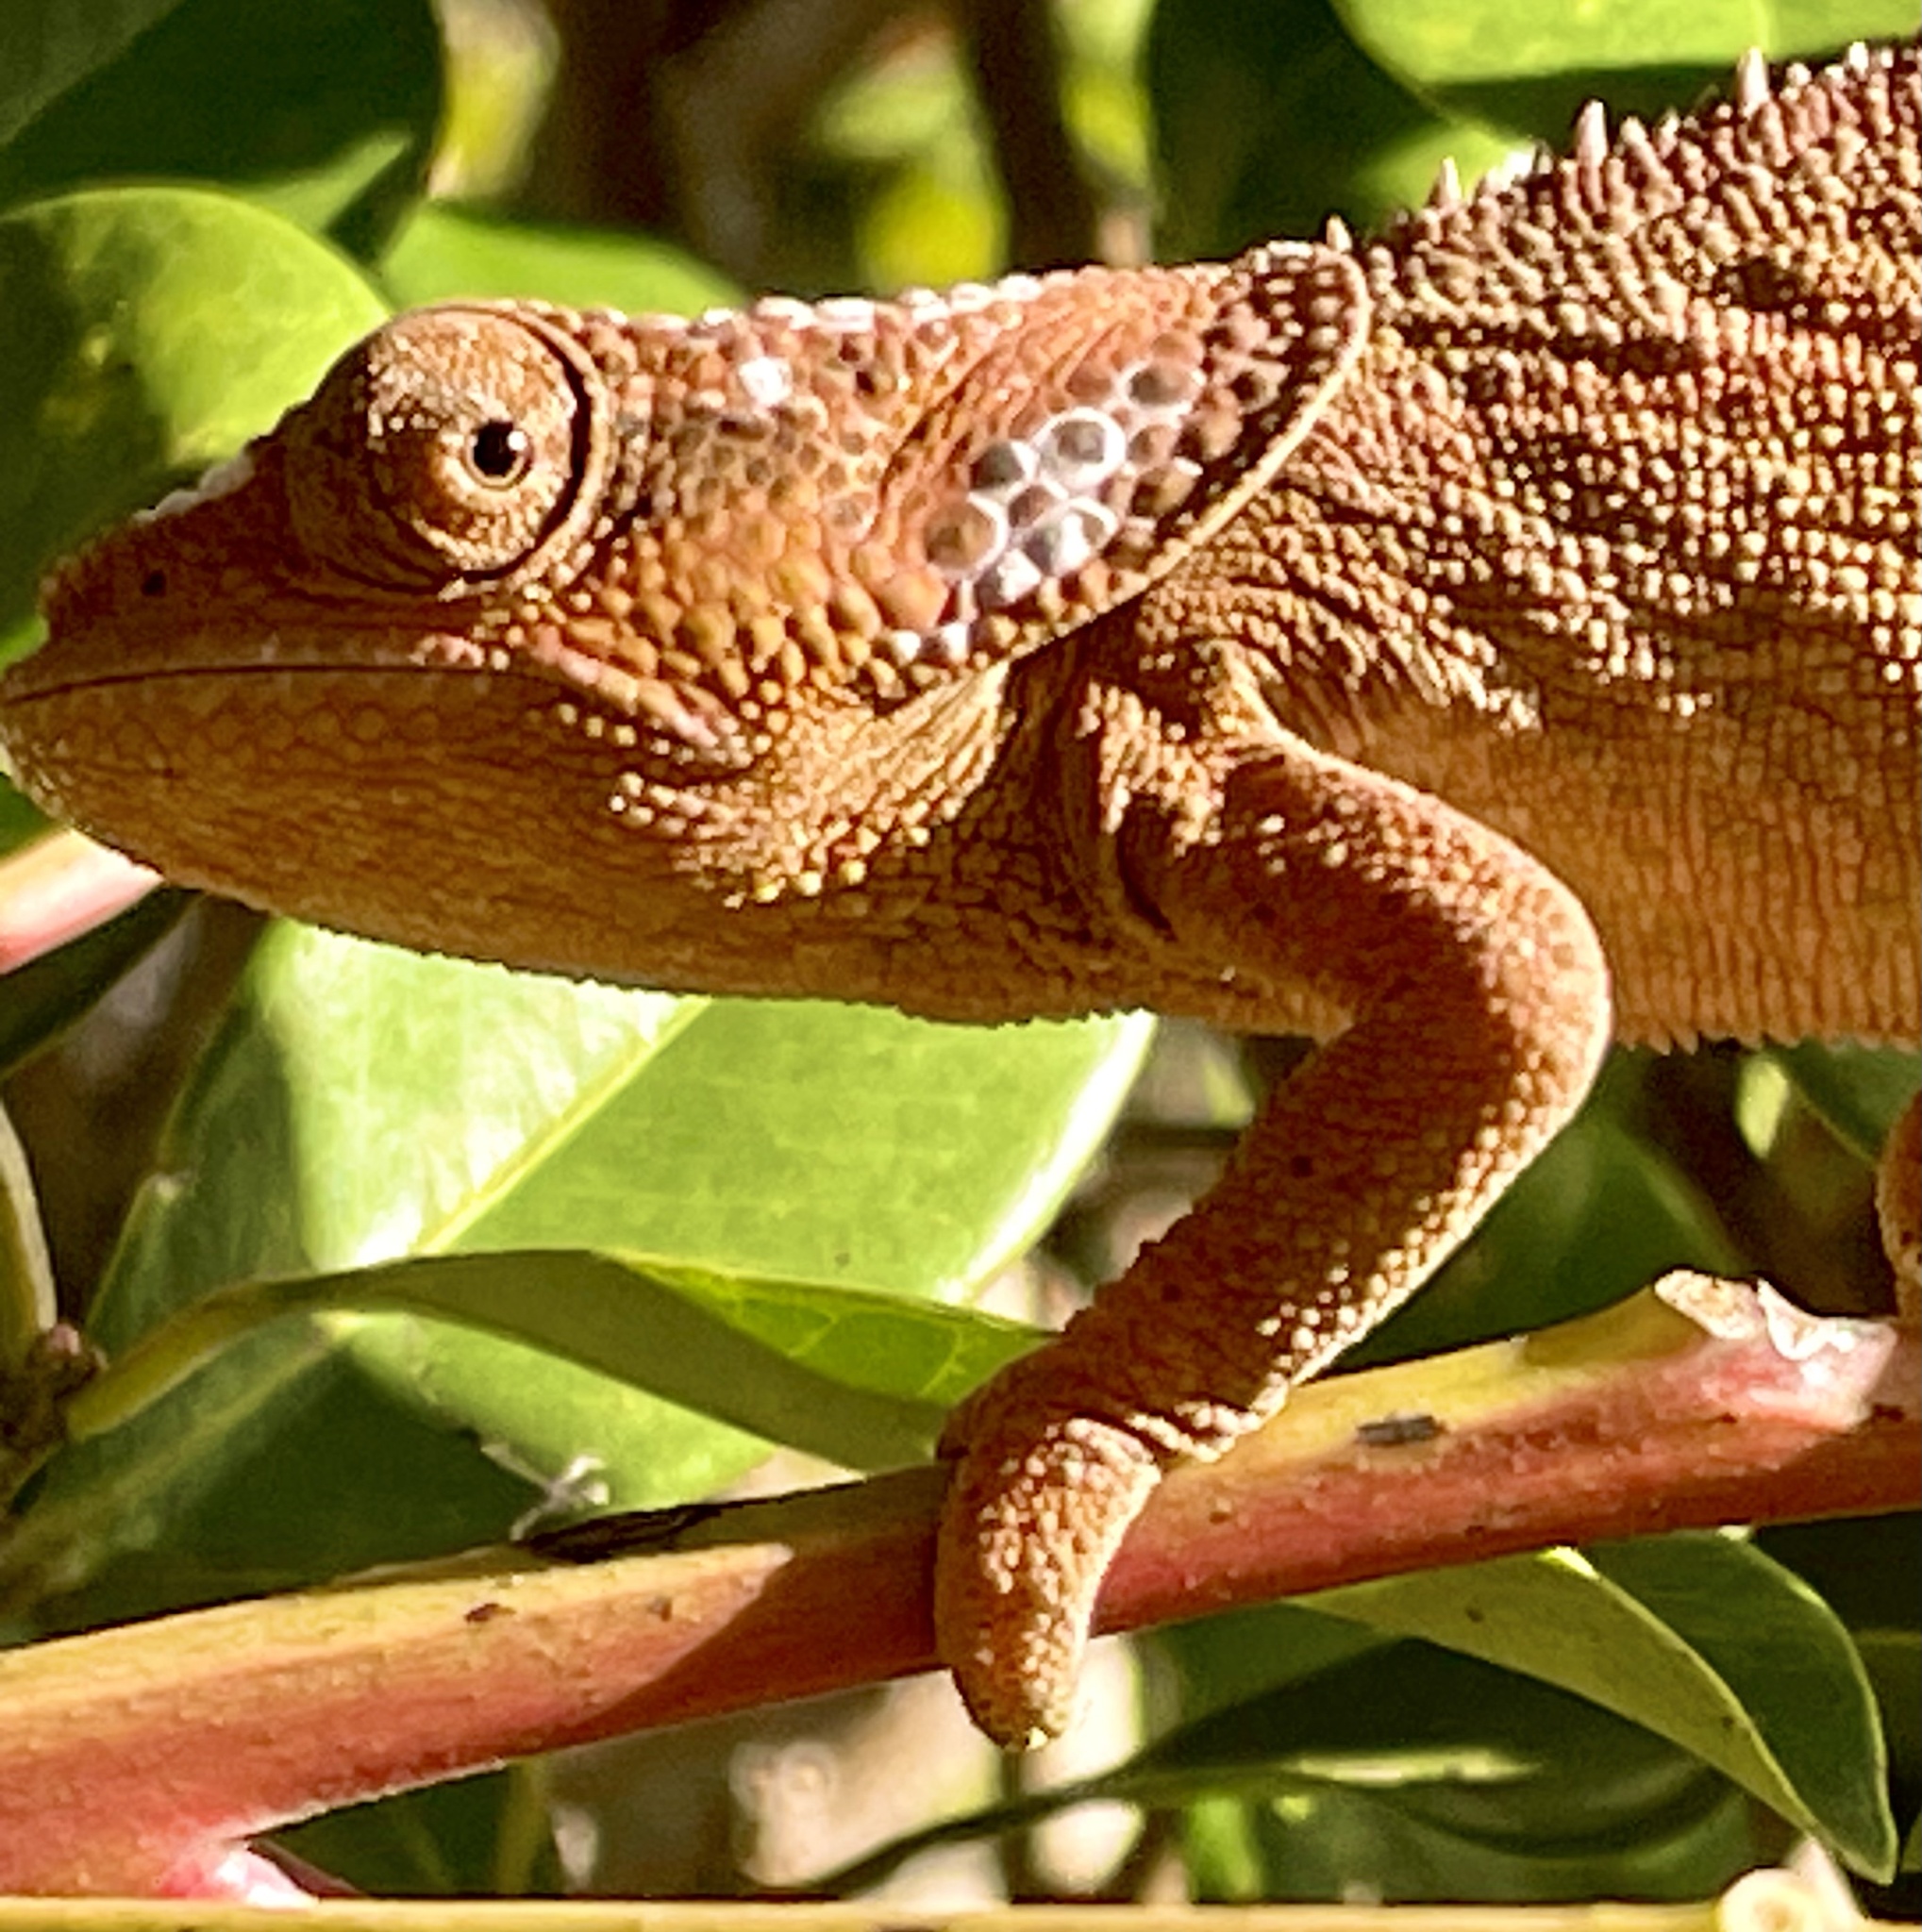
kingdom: Animalia
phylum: Chordata
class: Squamata
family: Chamaeleonidae
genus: Calumma
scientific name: Calumma brevicorne
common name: Short-horned chameleon
